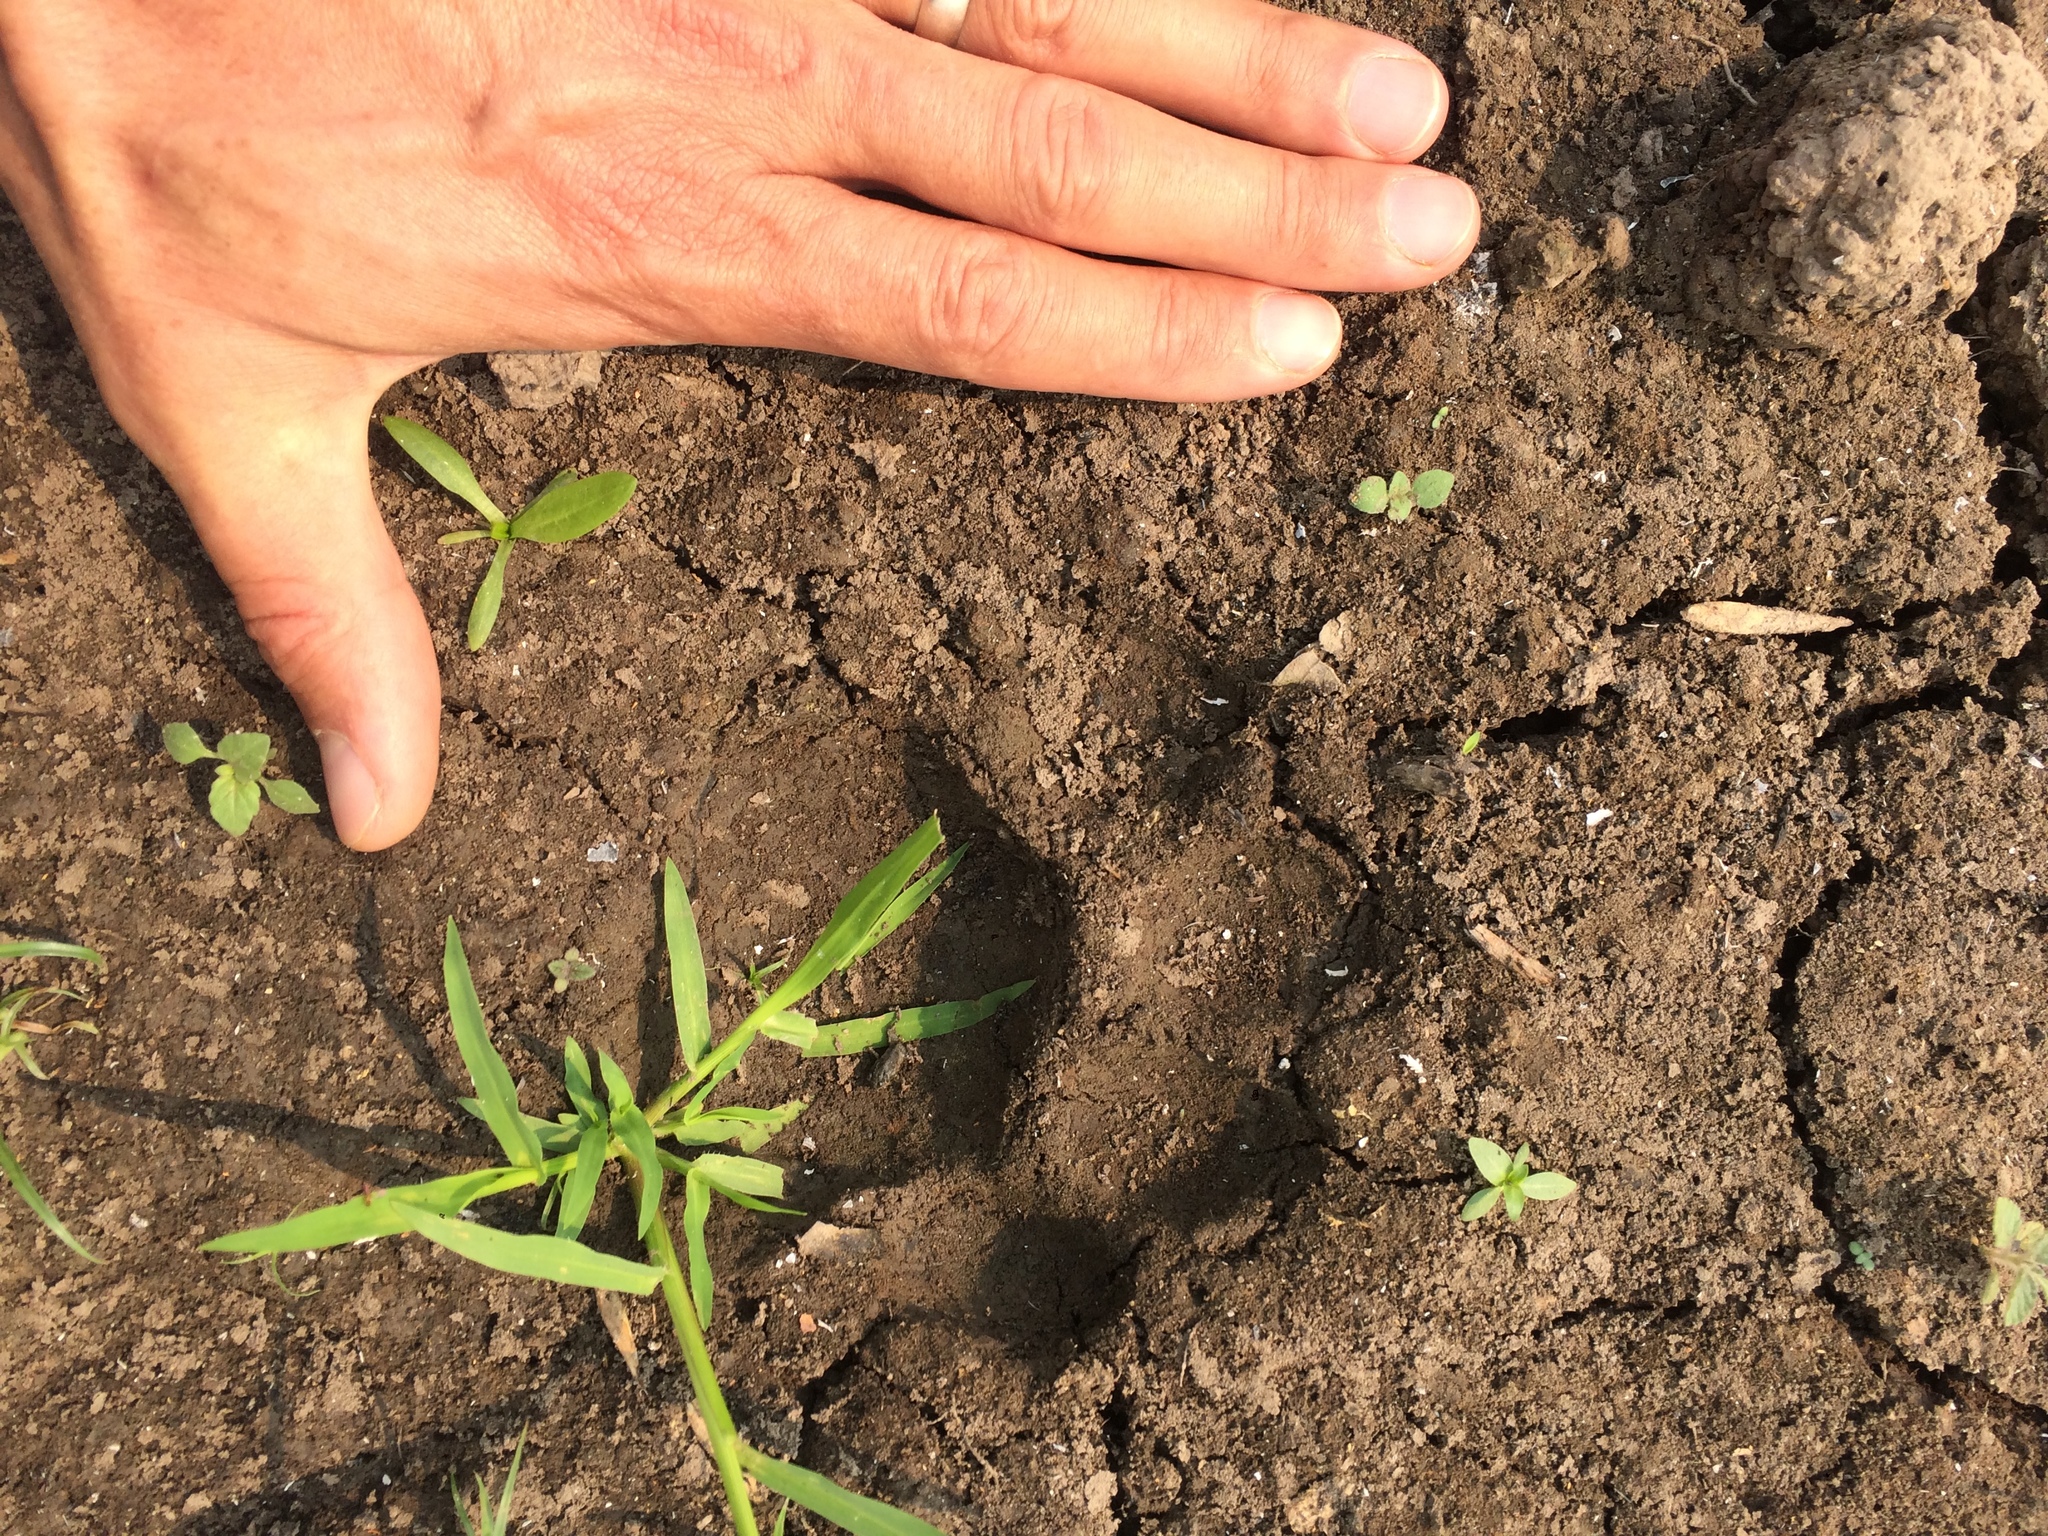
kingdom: Animalia
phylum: Chordata
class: Mammalia
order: Carnivora
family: Felidae
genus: Panthera
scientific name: Panthera onca
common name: Jaguar
